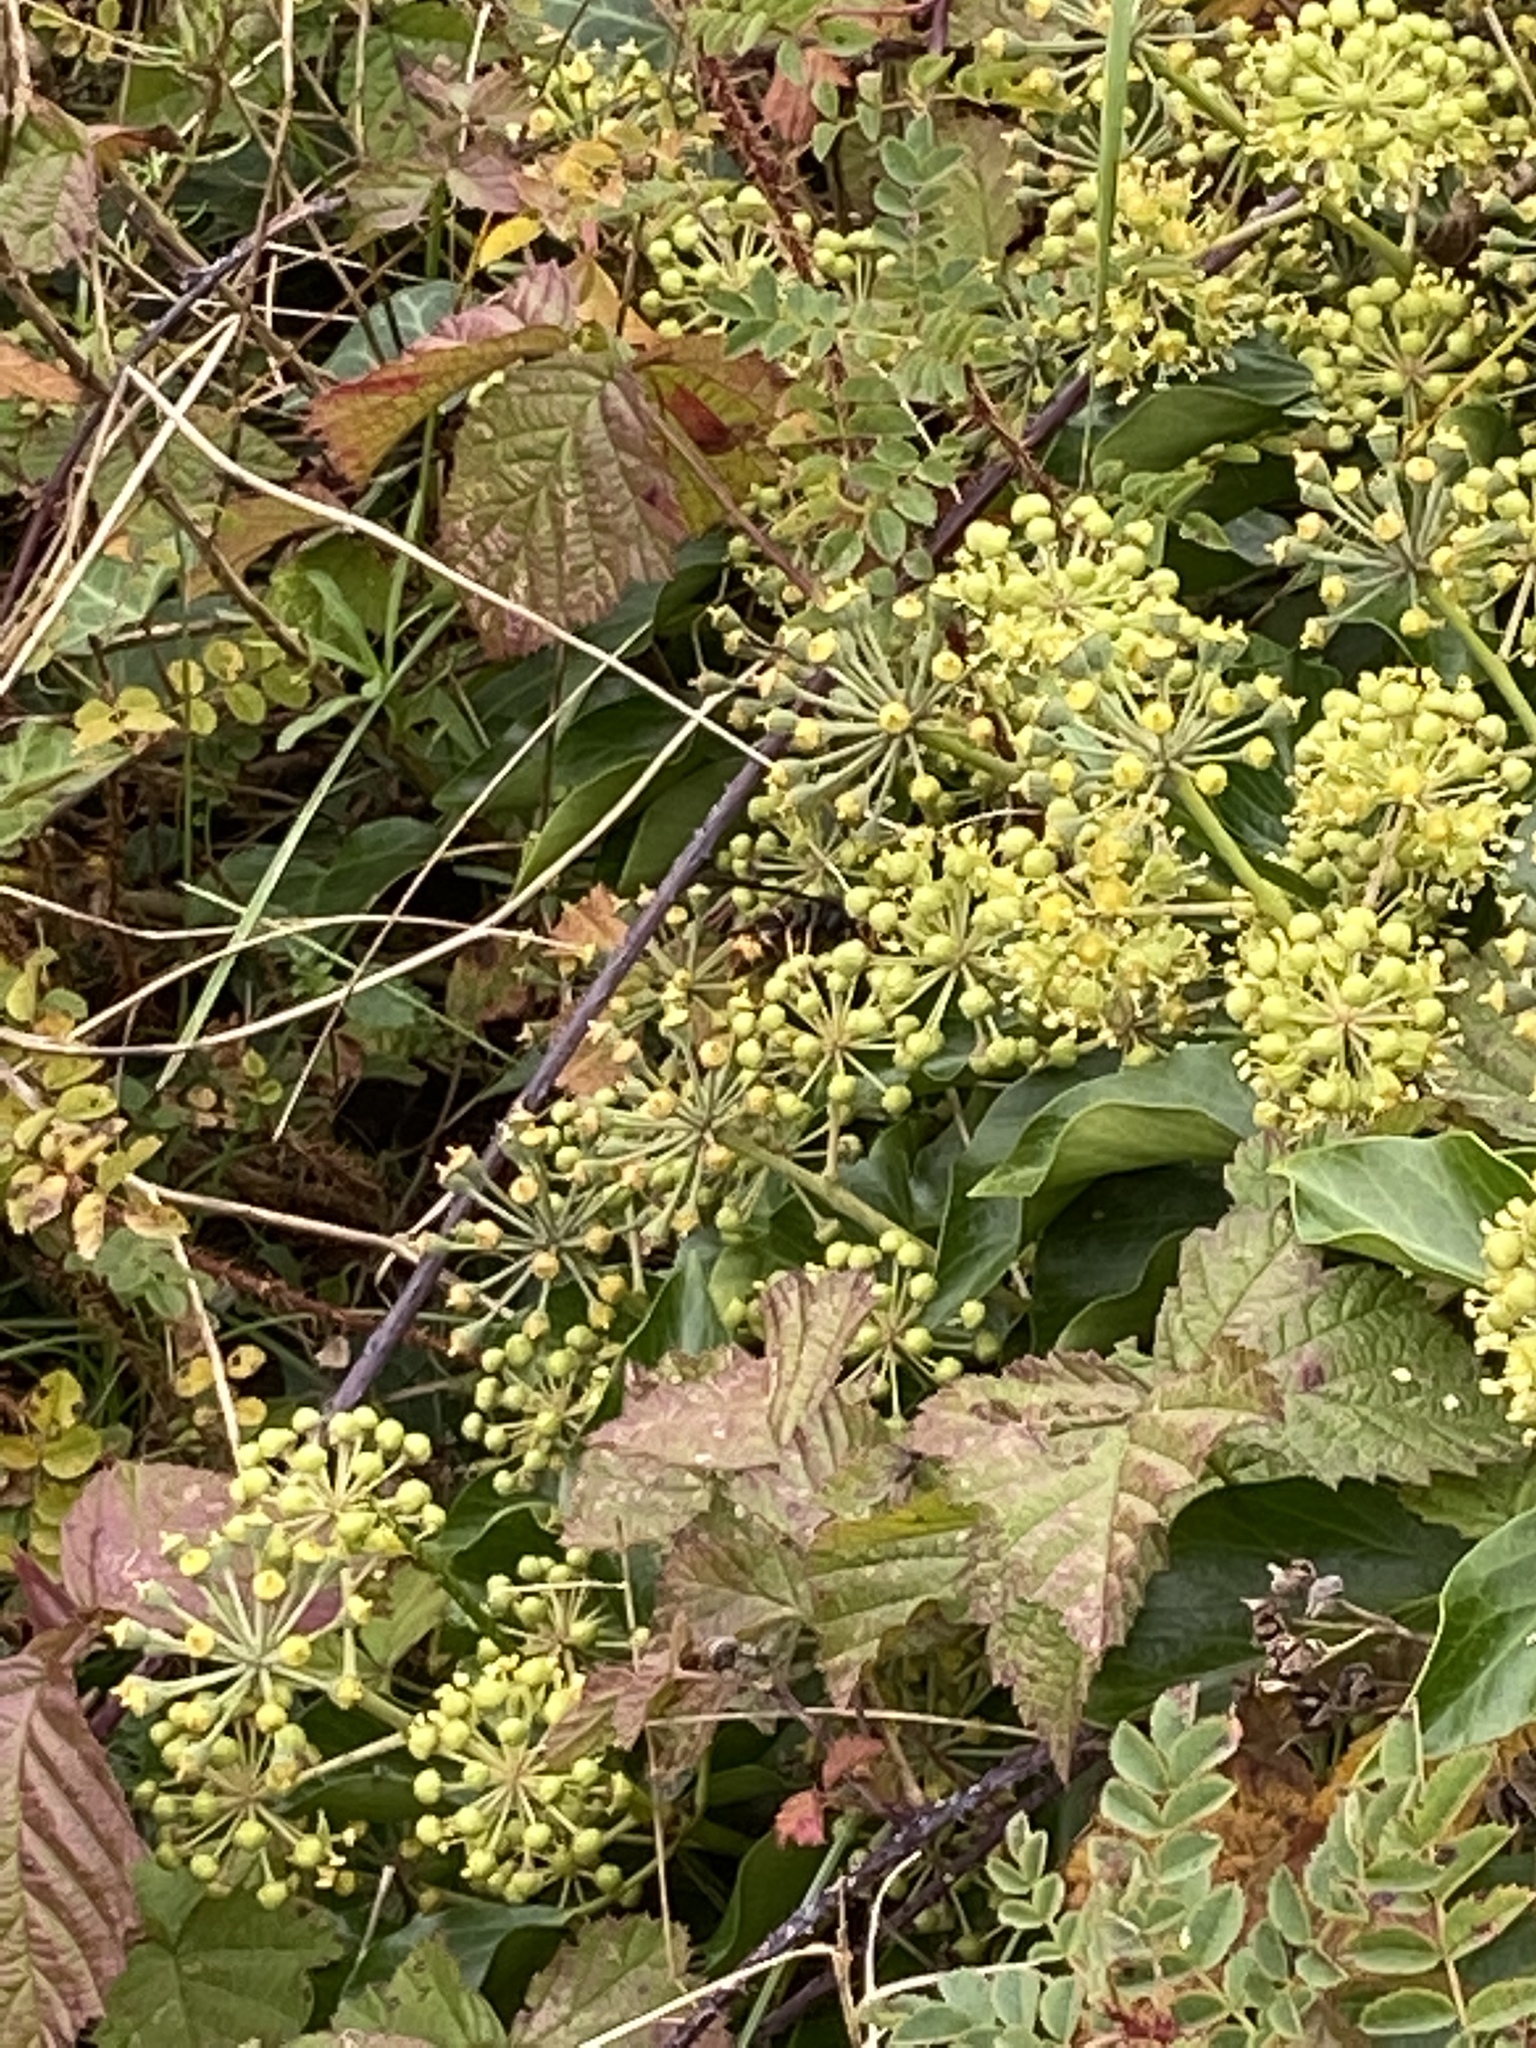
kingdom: Animalia
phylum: Arthropoda
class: Insecta
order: Hymenoptera
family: Vespidae
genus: Vespa
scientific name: Vespa velutina
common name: Asian hornet
